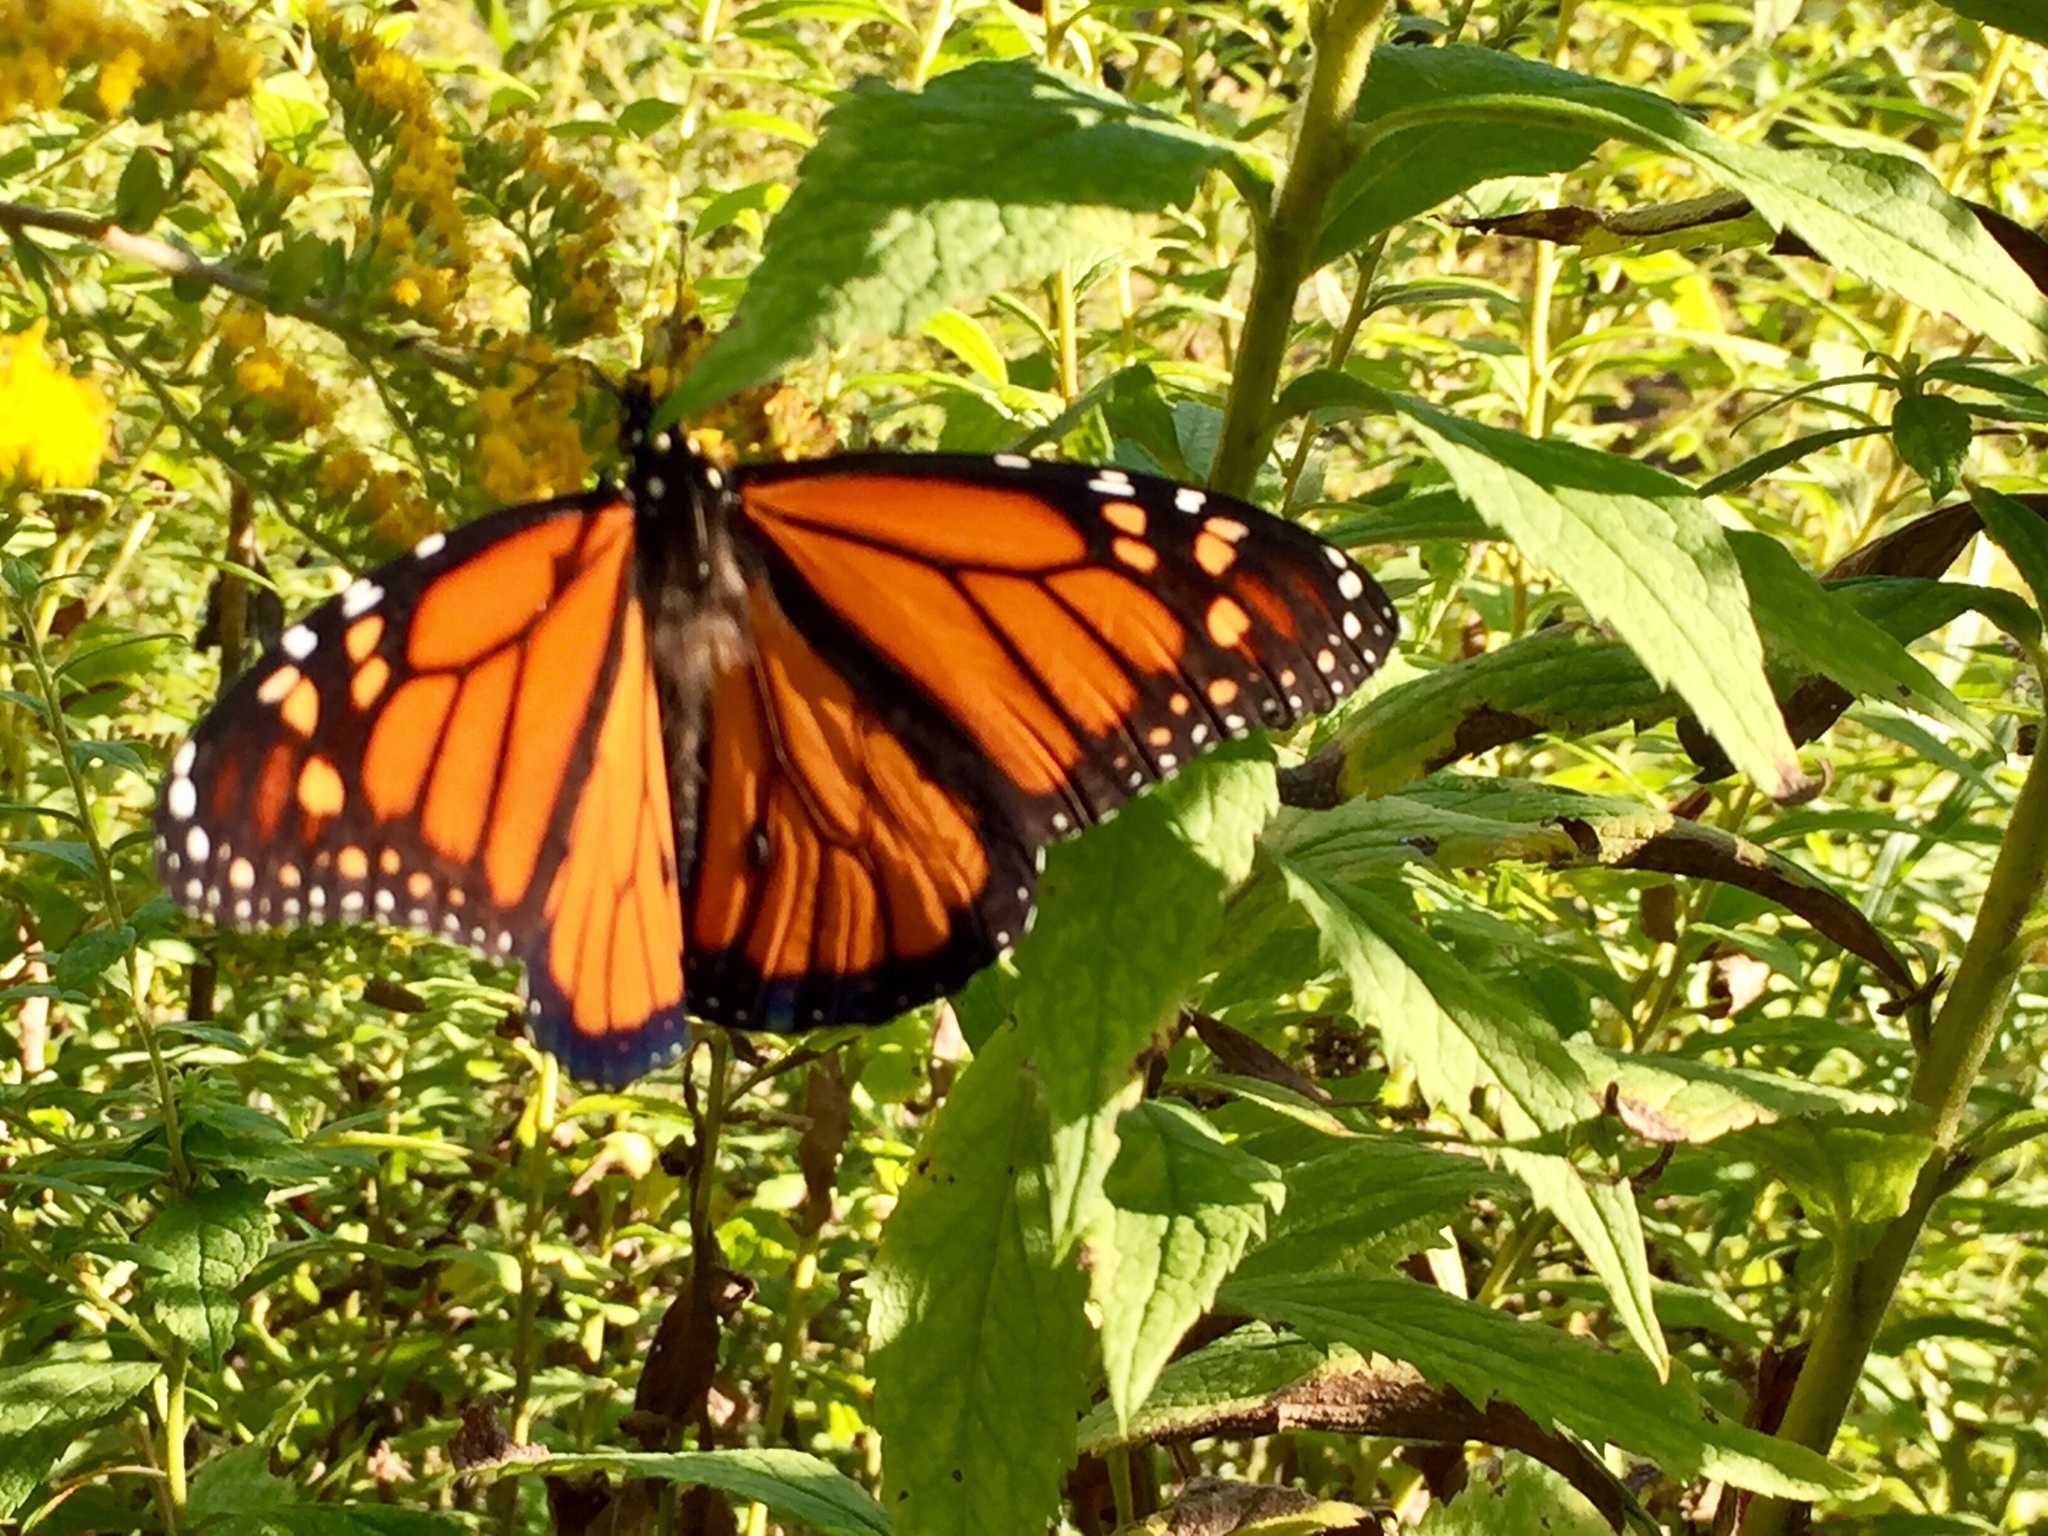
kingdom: Animalia
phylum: Arthropoda
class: Insecta
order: Lepidoptera
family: Nymphalidae
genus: Danaus
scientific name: Danaus plexippus
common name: Monarch
